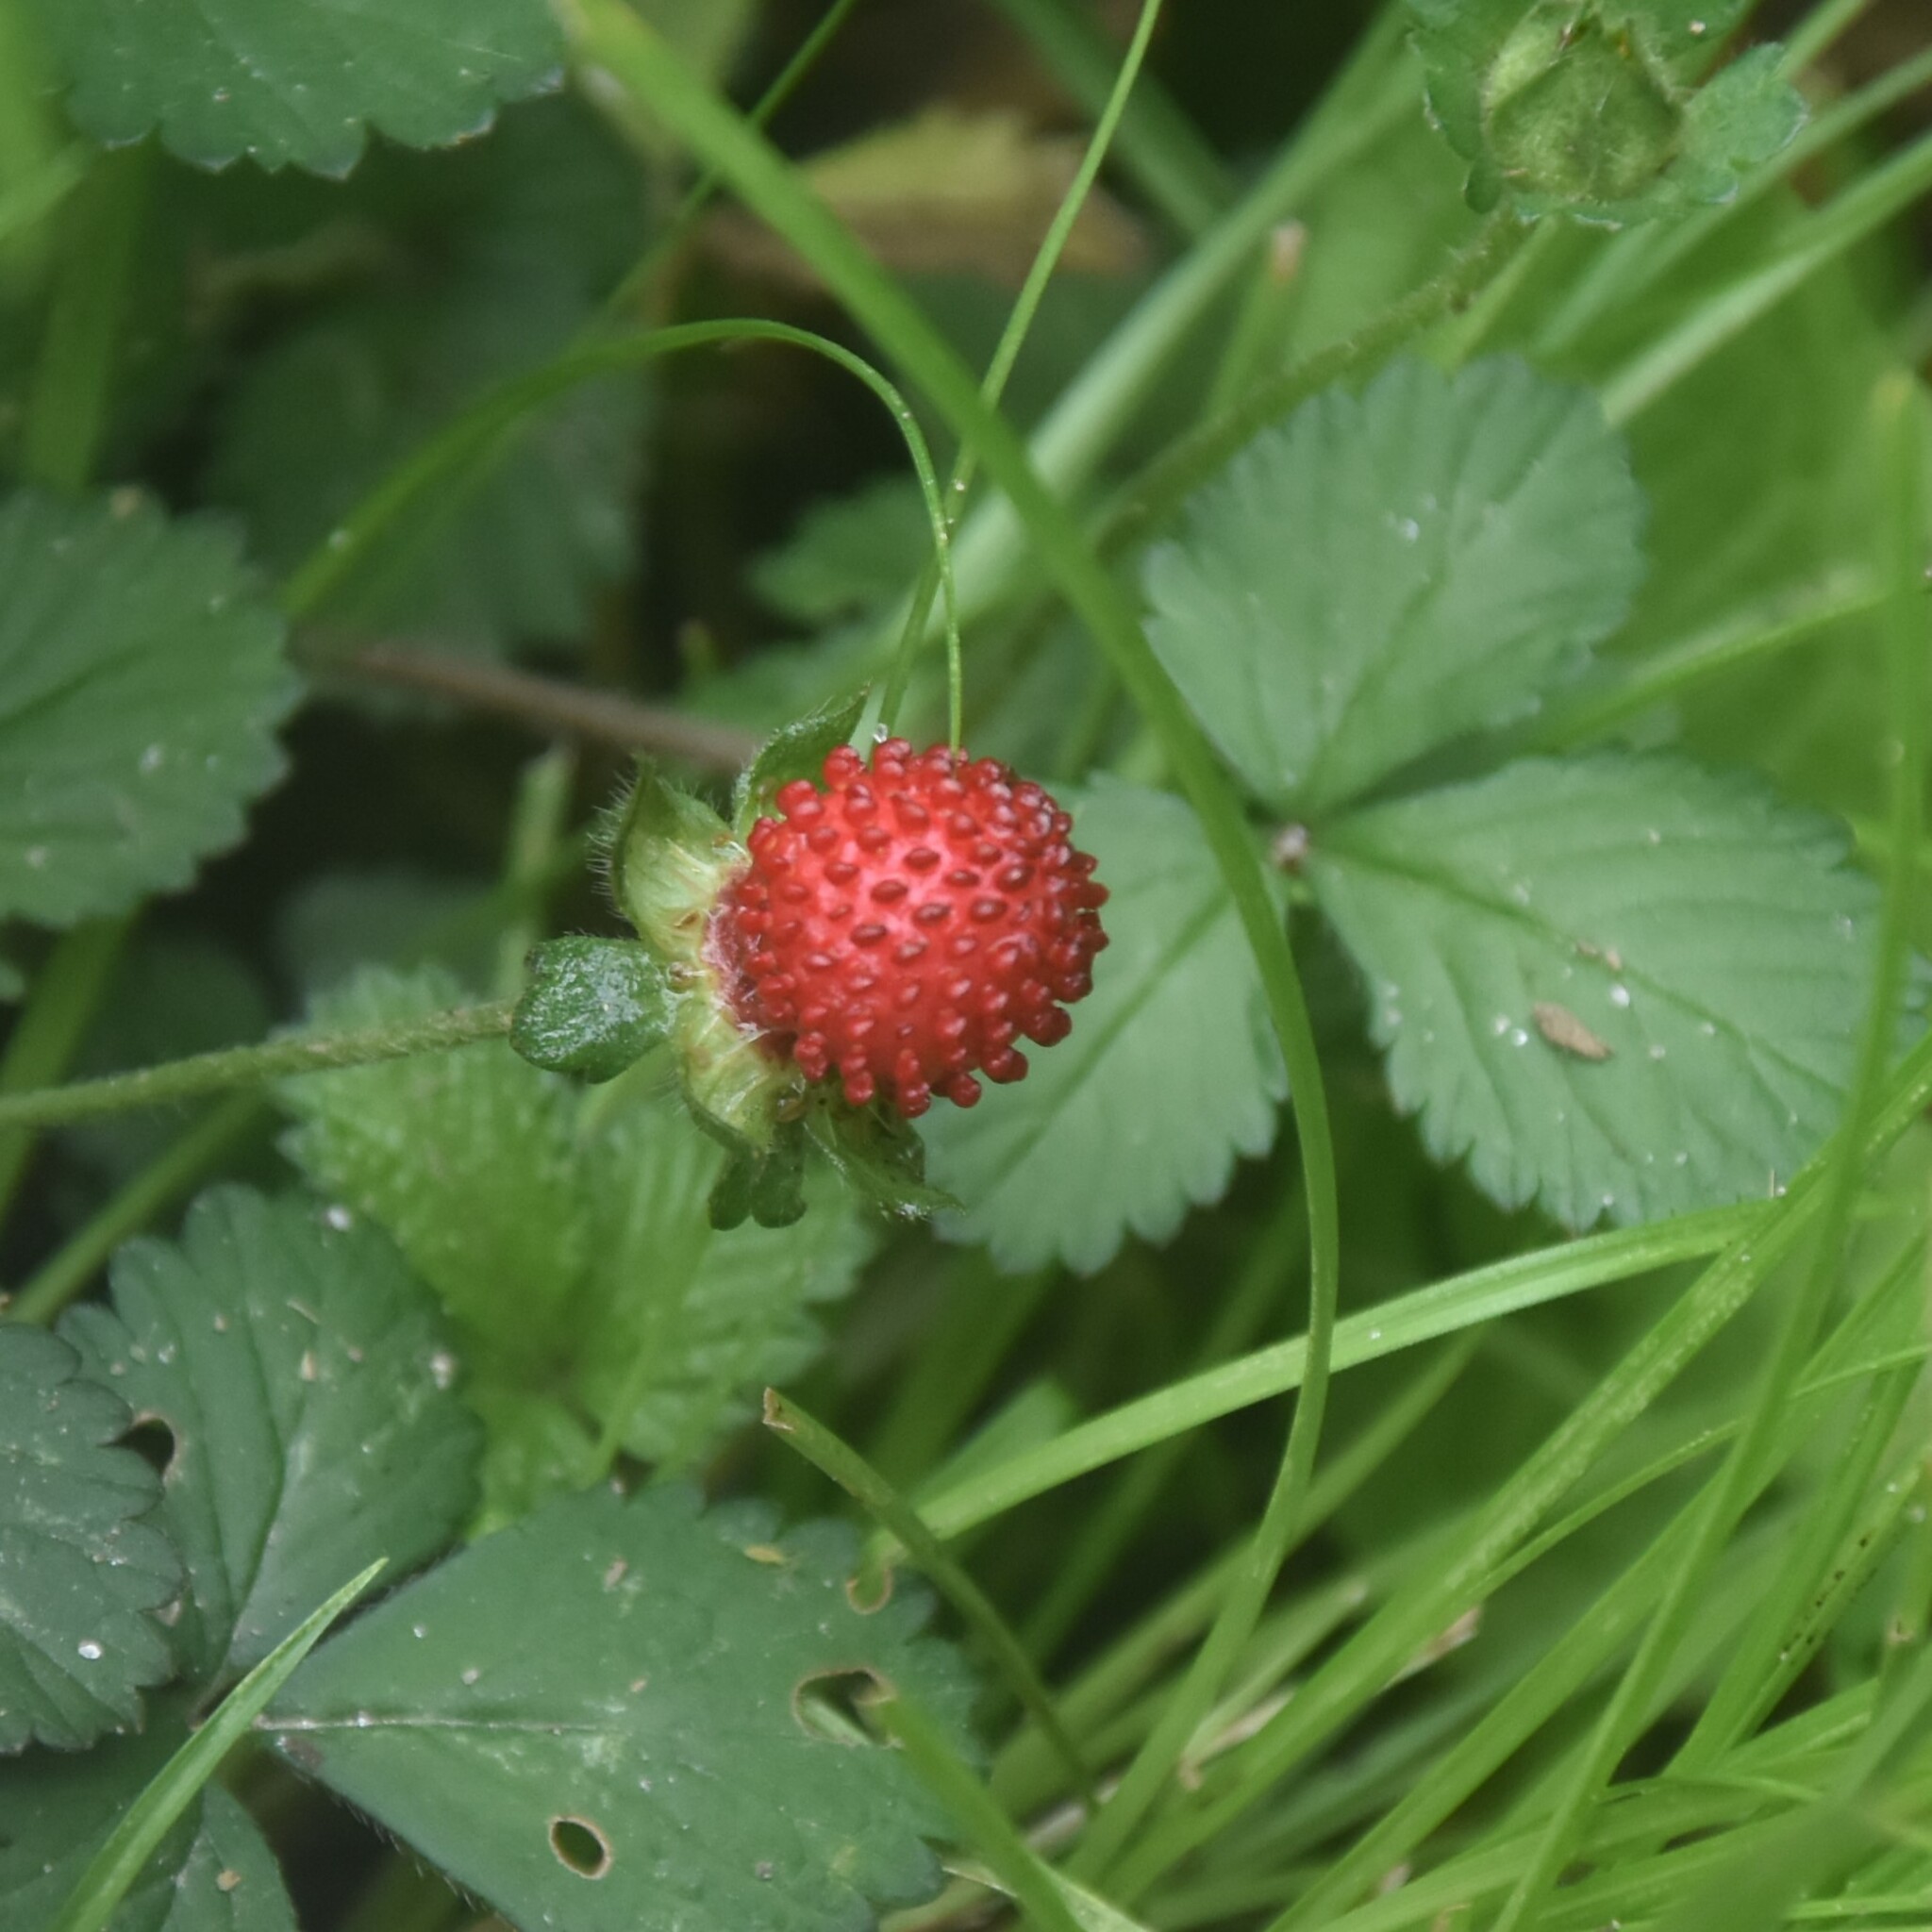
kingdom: Plantae
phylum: Tracheophyta
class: Magnoliopsida
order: Rosales
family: Rosaceae
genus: Potentilla
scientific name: Potentilla indica
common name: Yellow-flowered strawberry
